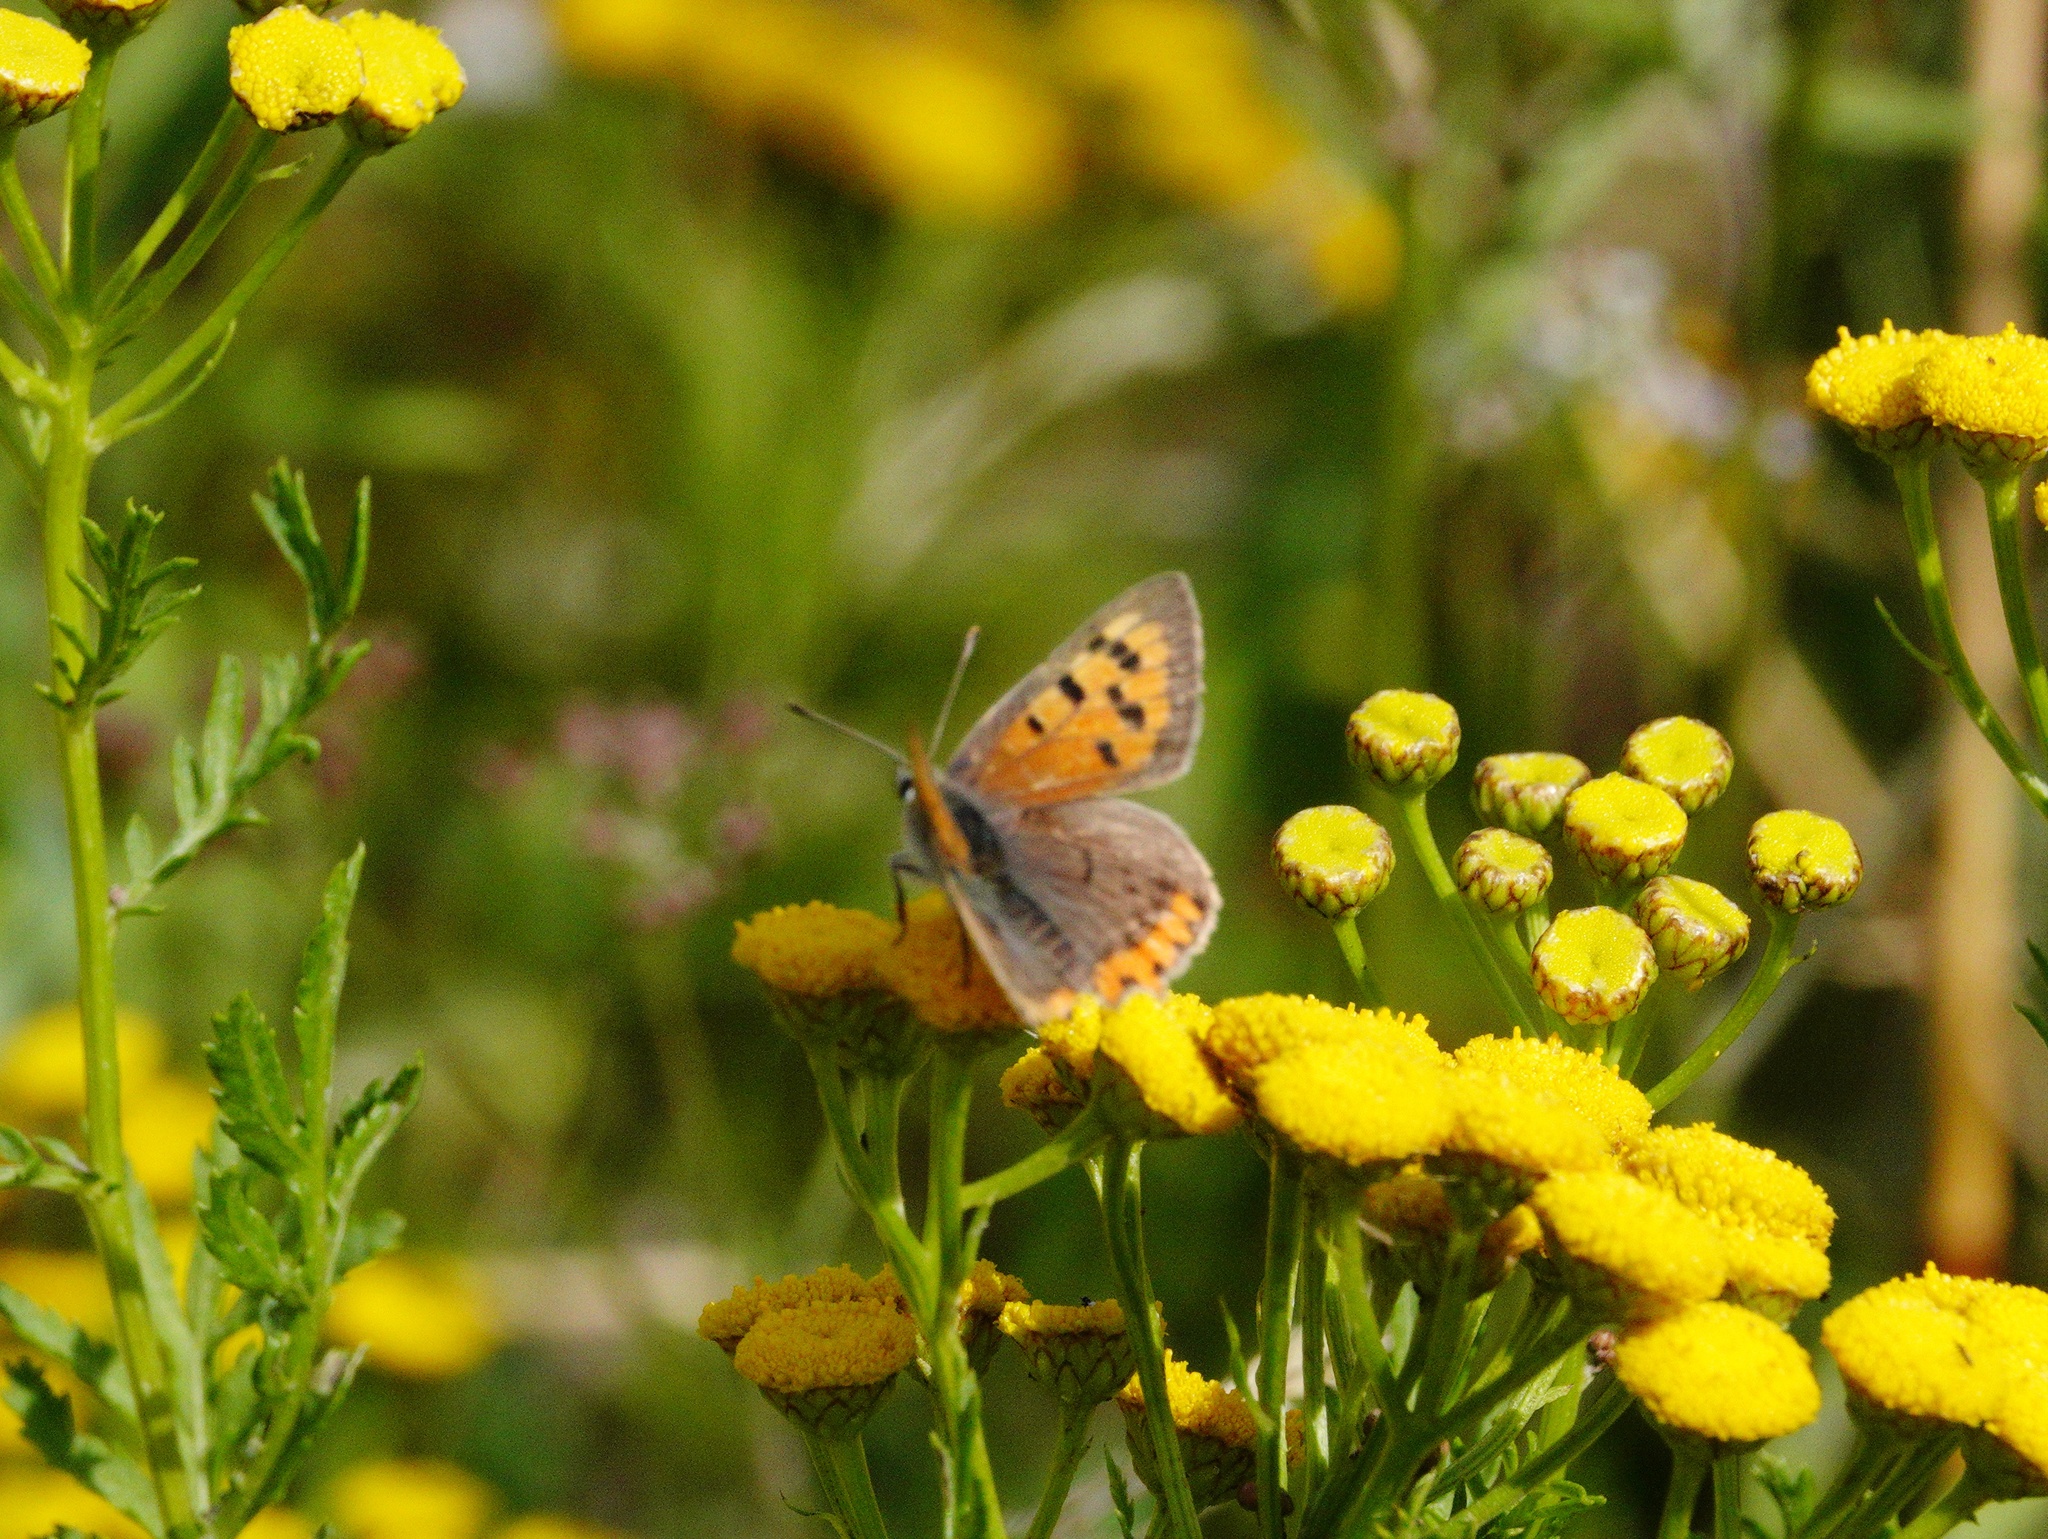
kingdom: Animalia
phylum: Arthropoda
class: Insecta
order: Lepidoptera
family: Lycaenidae
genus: Lycaena
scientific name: Lycaena phlaeas
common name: Small copper
